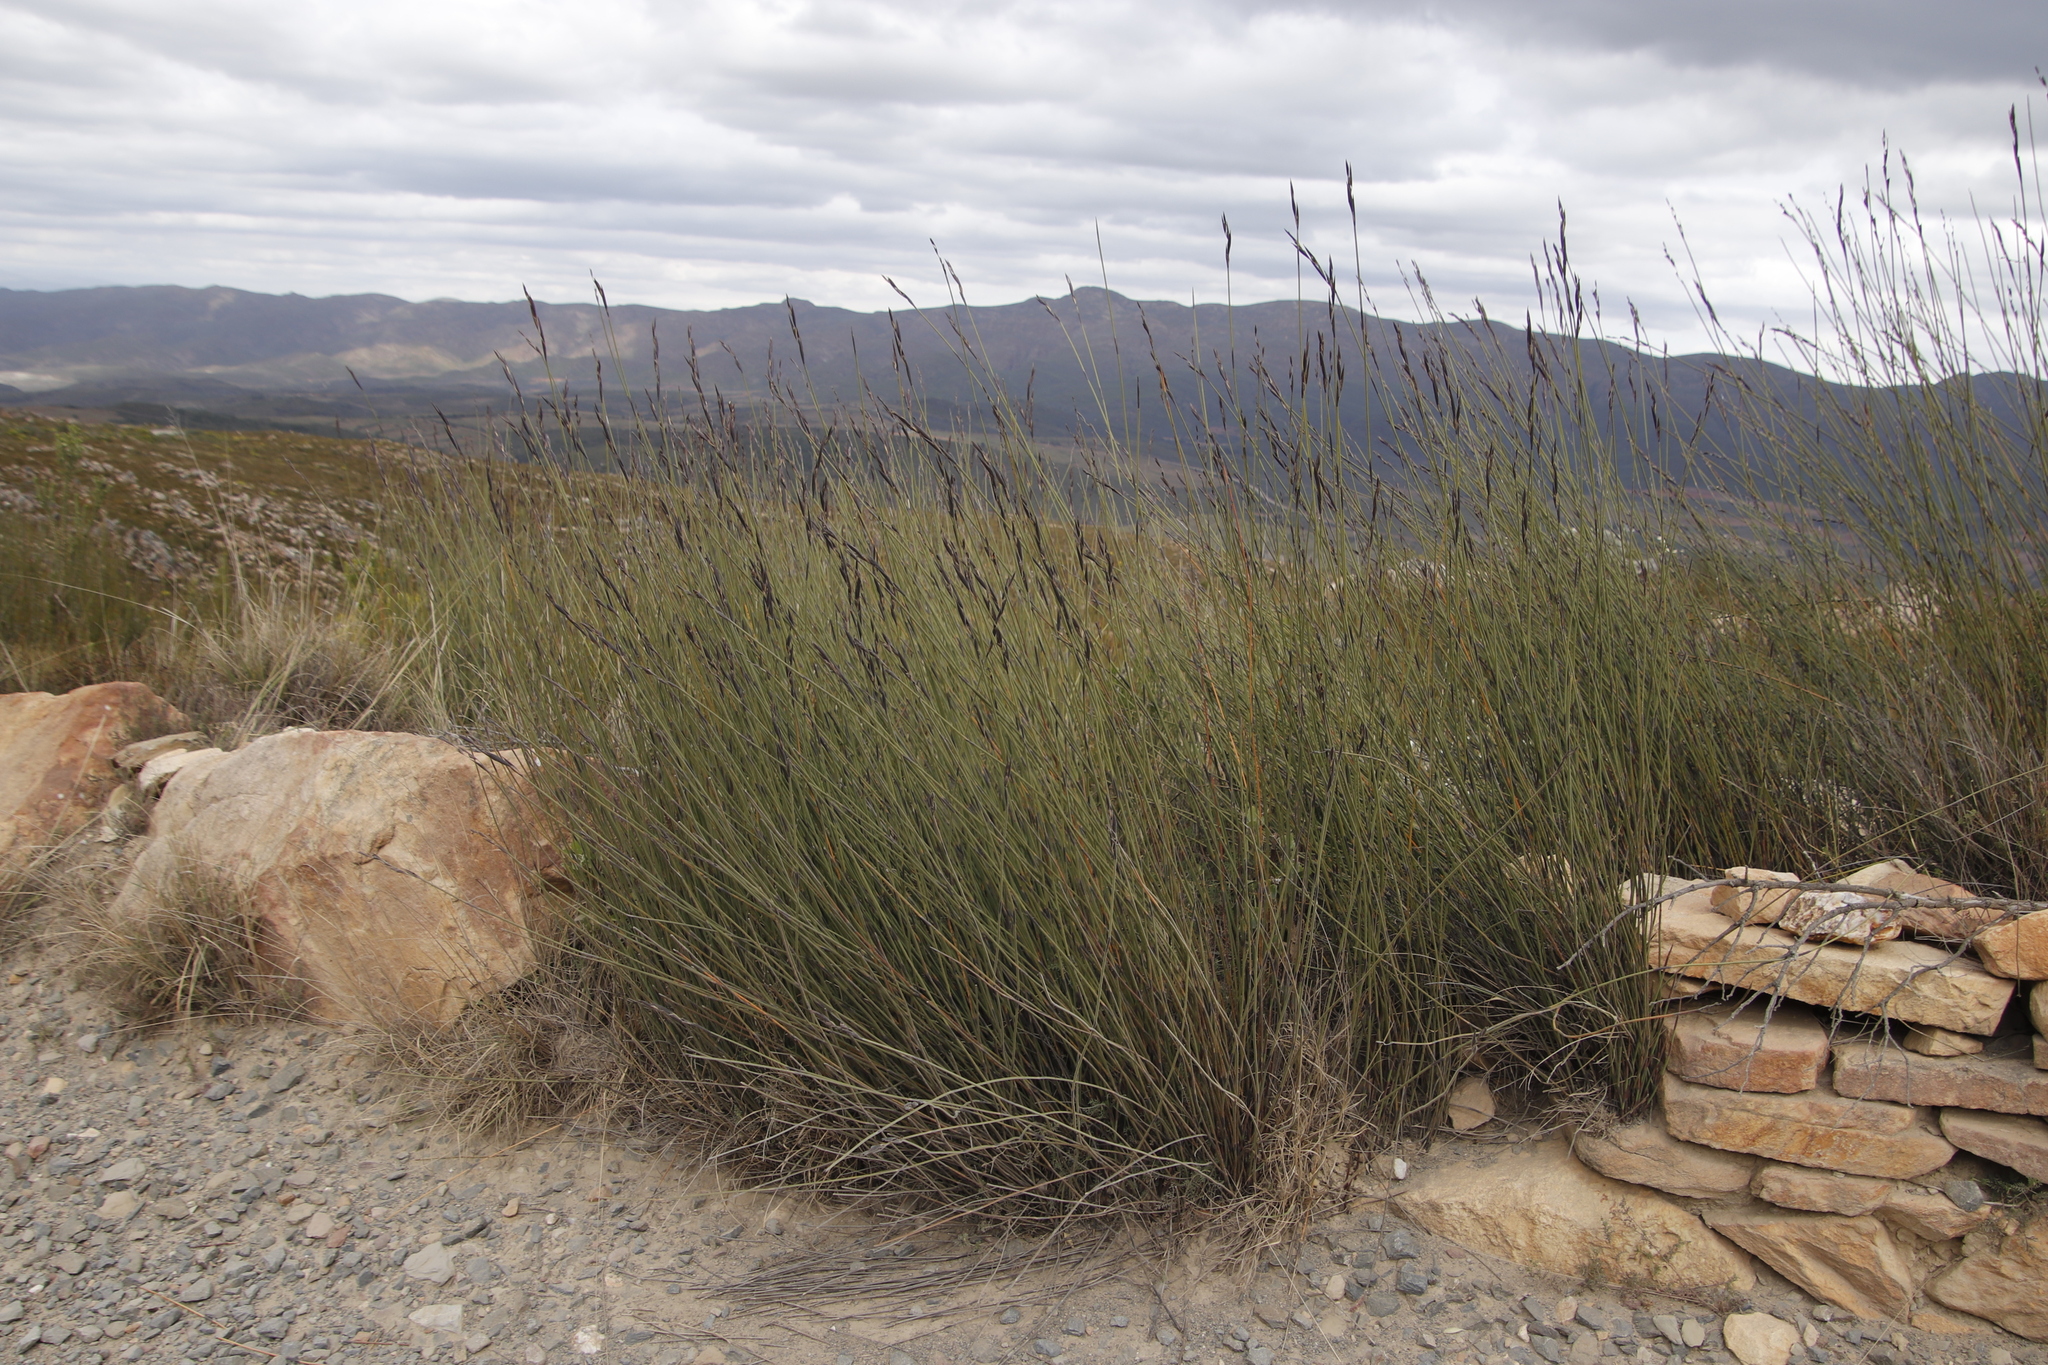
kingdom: Plantae
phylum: Tracheophyta
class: Liliopsida
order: Poales
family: Restionaceae
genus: Cannomois
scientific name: Cannomois scirpoides
